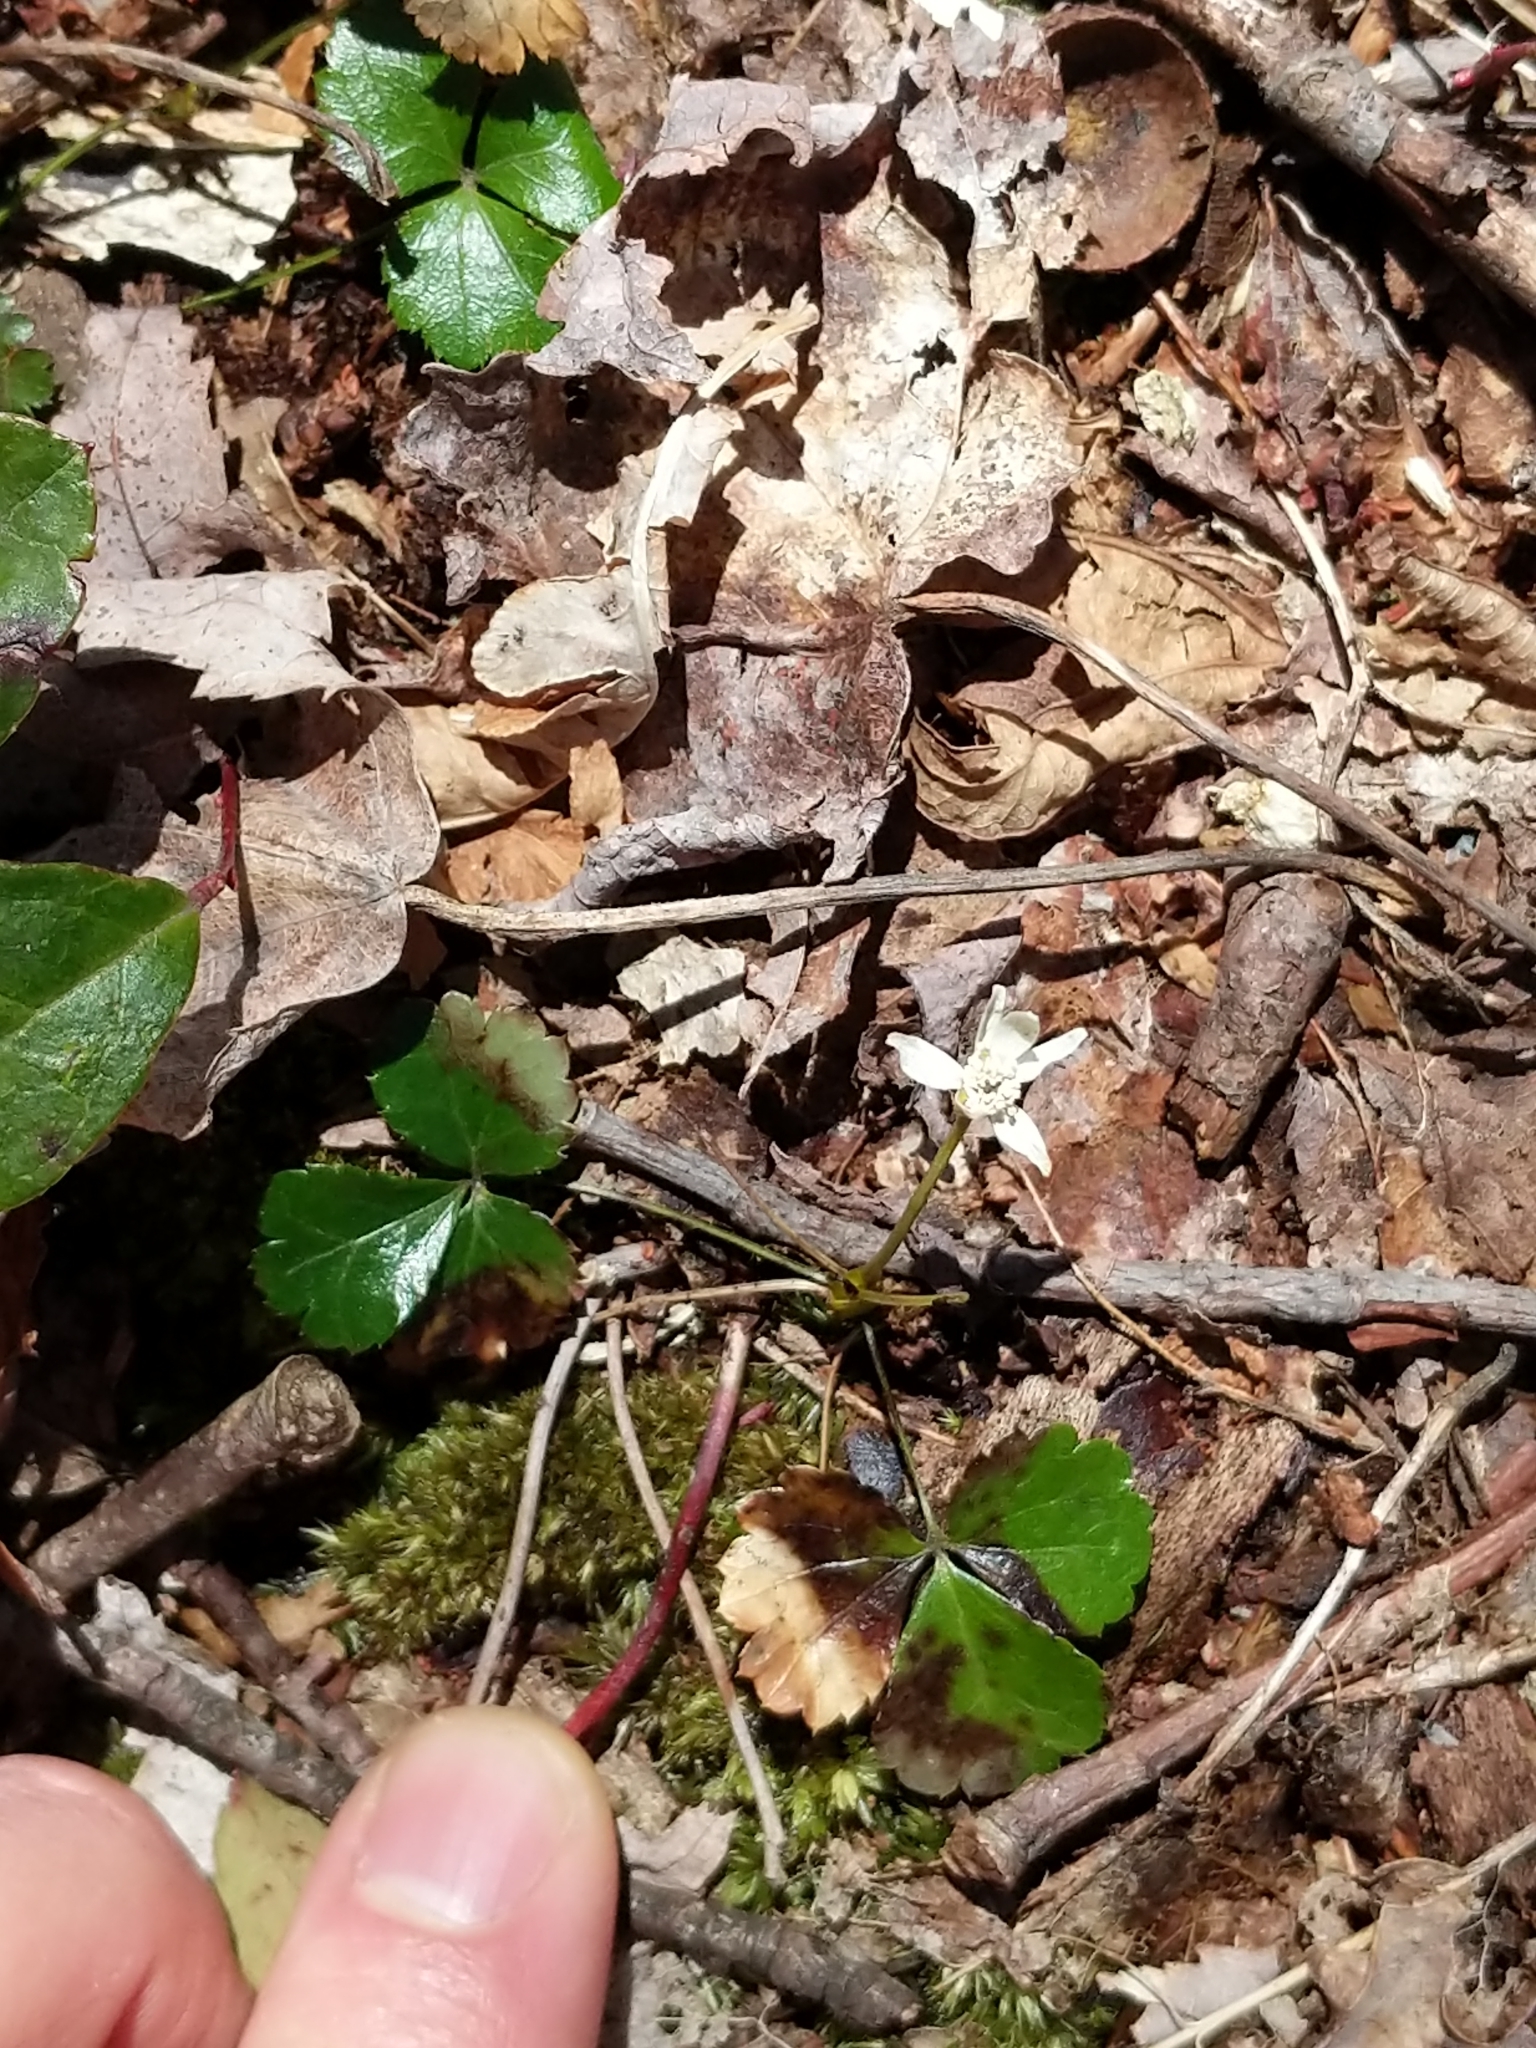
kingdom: Plantae
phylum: Tracheophyta
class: Magnoliopsida
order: Ranunculales
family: Ranunculaceae
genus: Coptis
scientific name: Coptis trifolia
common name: Canker-root
